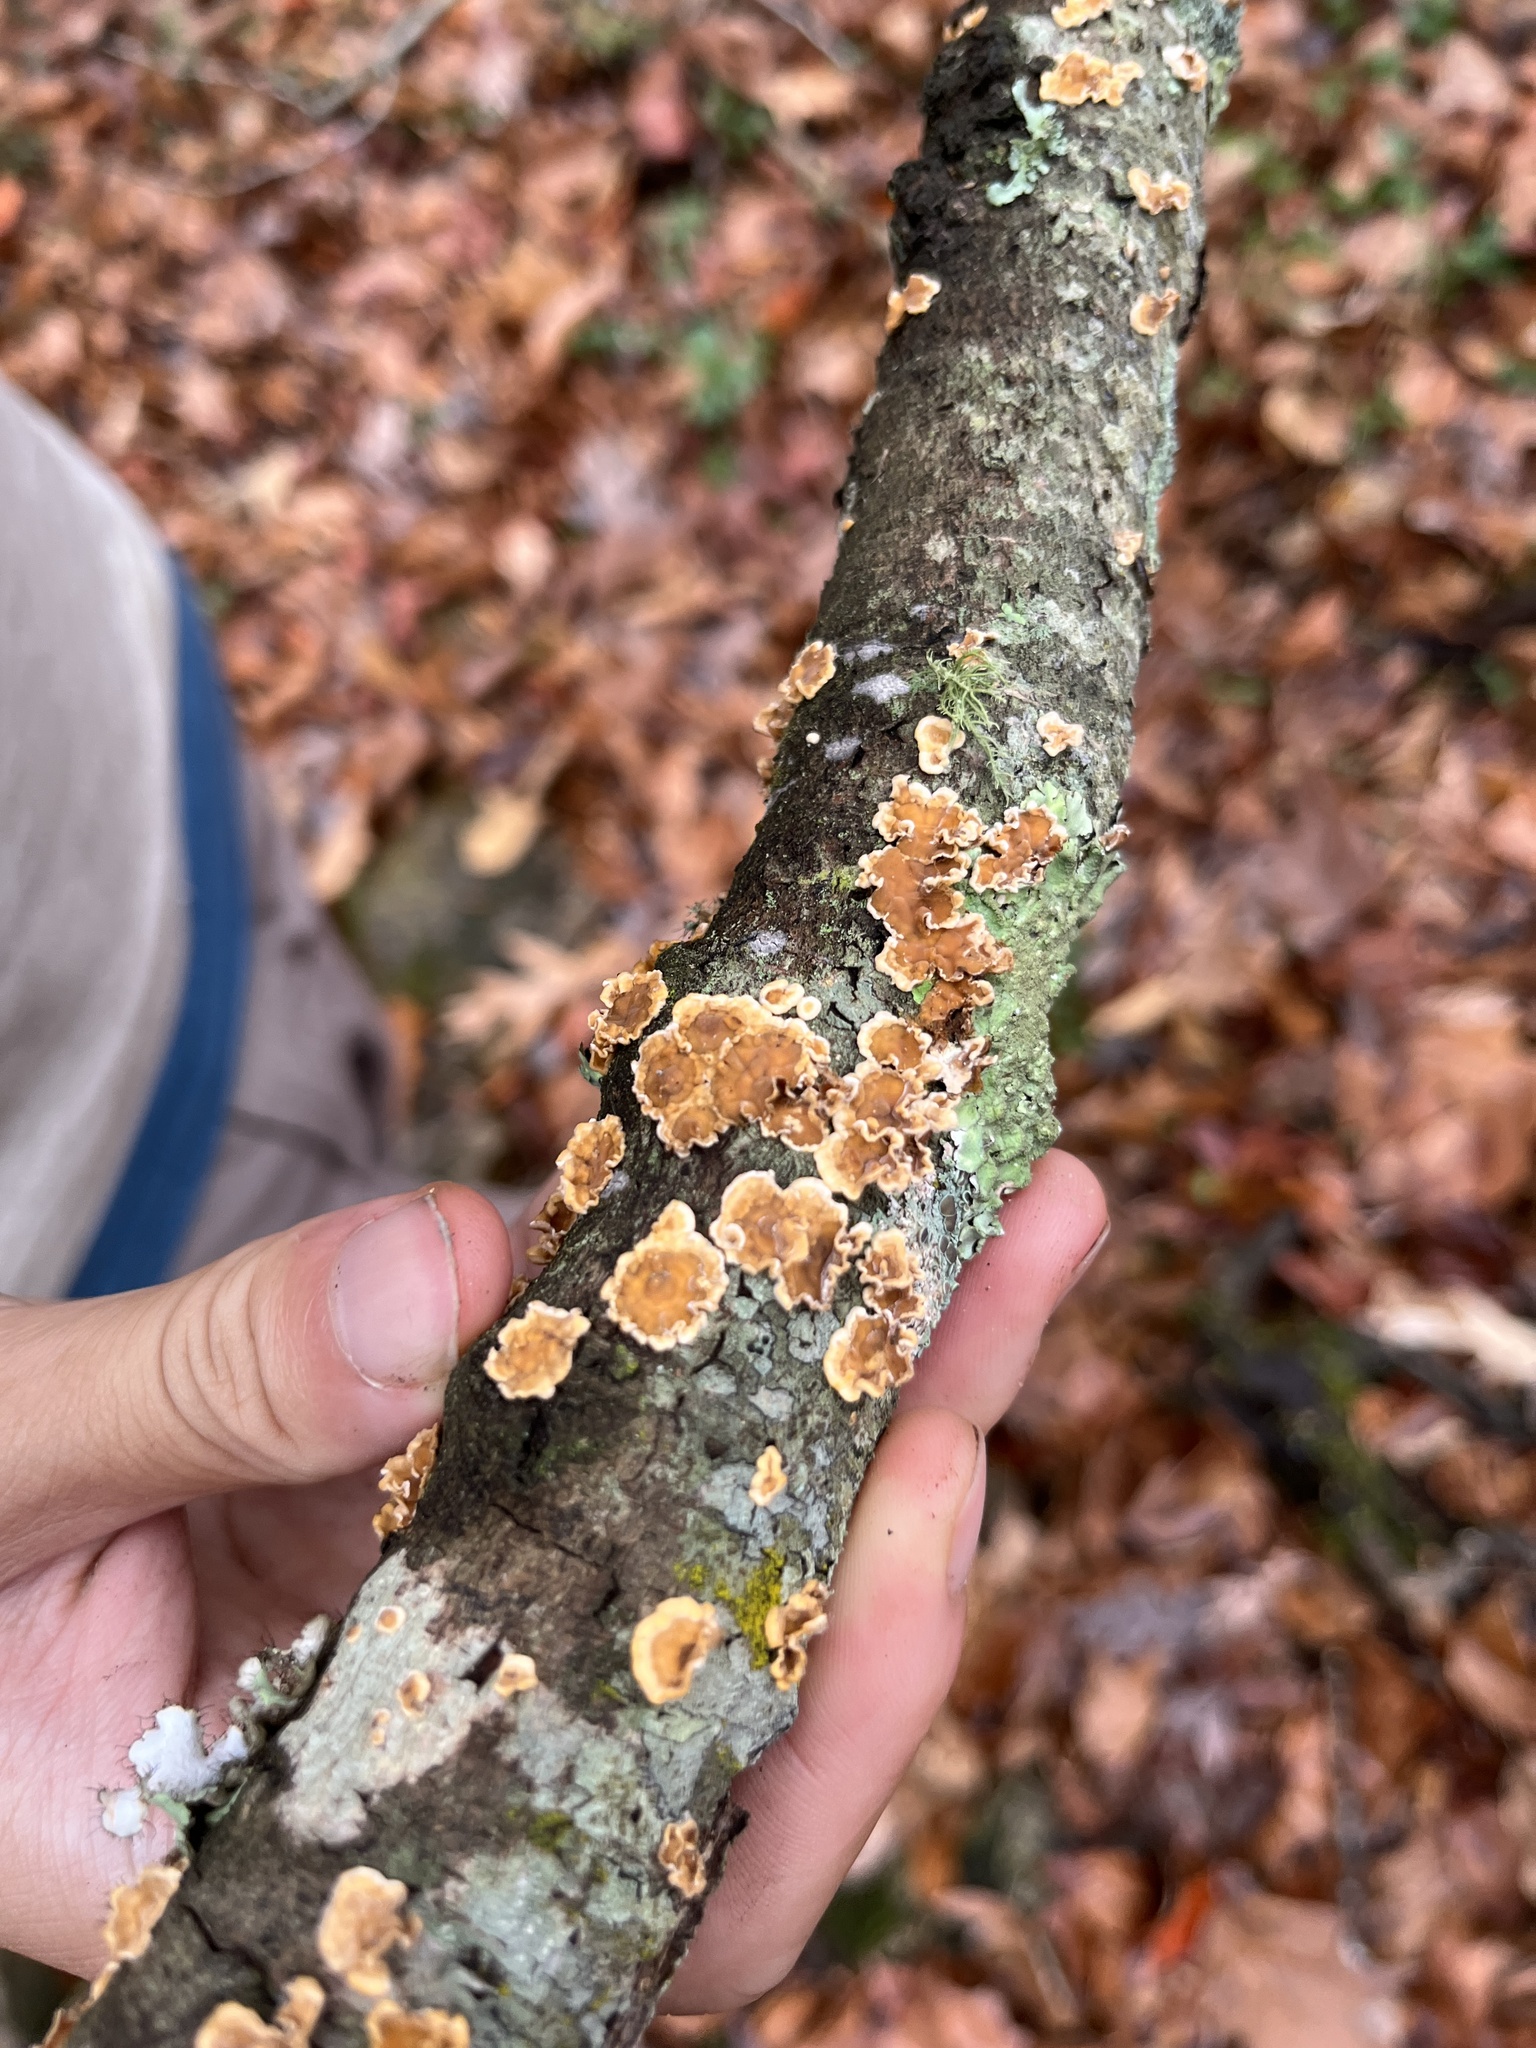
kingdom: Fungi
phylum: Basidiomycota
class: Agaricomycetes
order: Russulales
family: Stereaceae
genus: Stereum
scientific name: Stereum complicatum
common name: Crowded parchment
